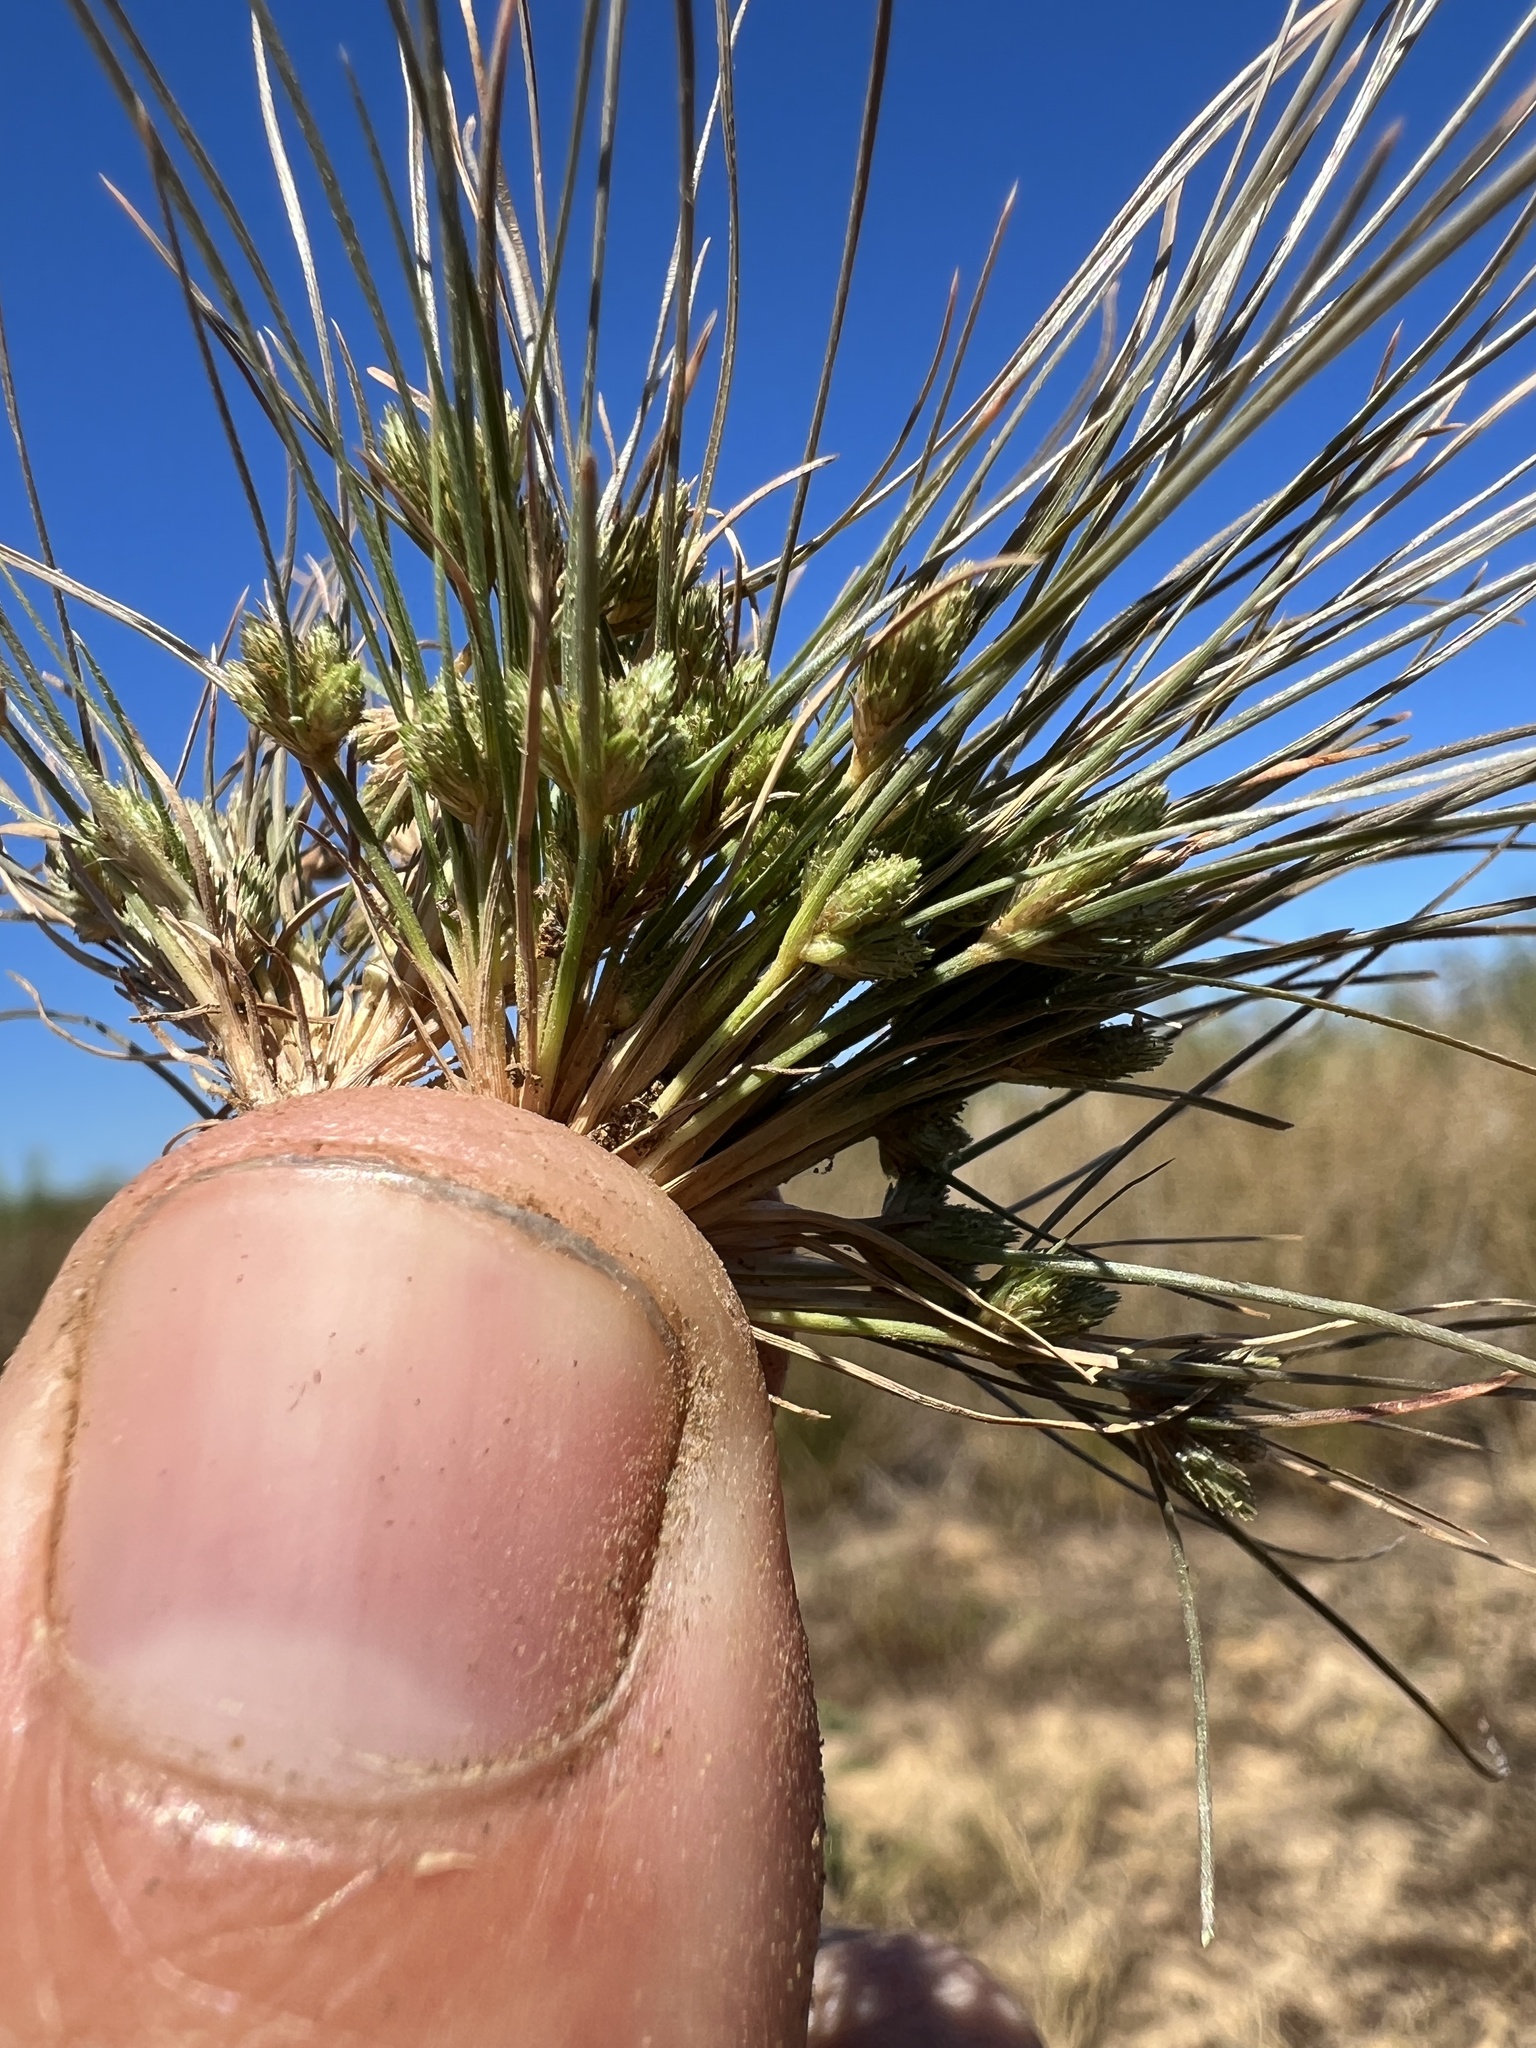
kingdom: Plantae
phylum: Tracheophyta
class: Liliopsida
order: Poales
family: Cyperaceae
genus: Fimbristylis
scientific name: Fimbristylis vahlii
